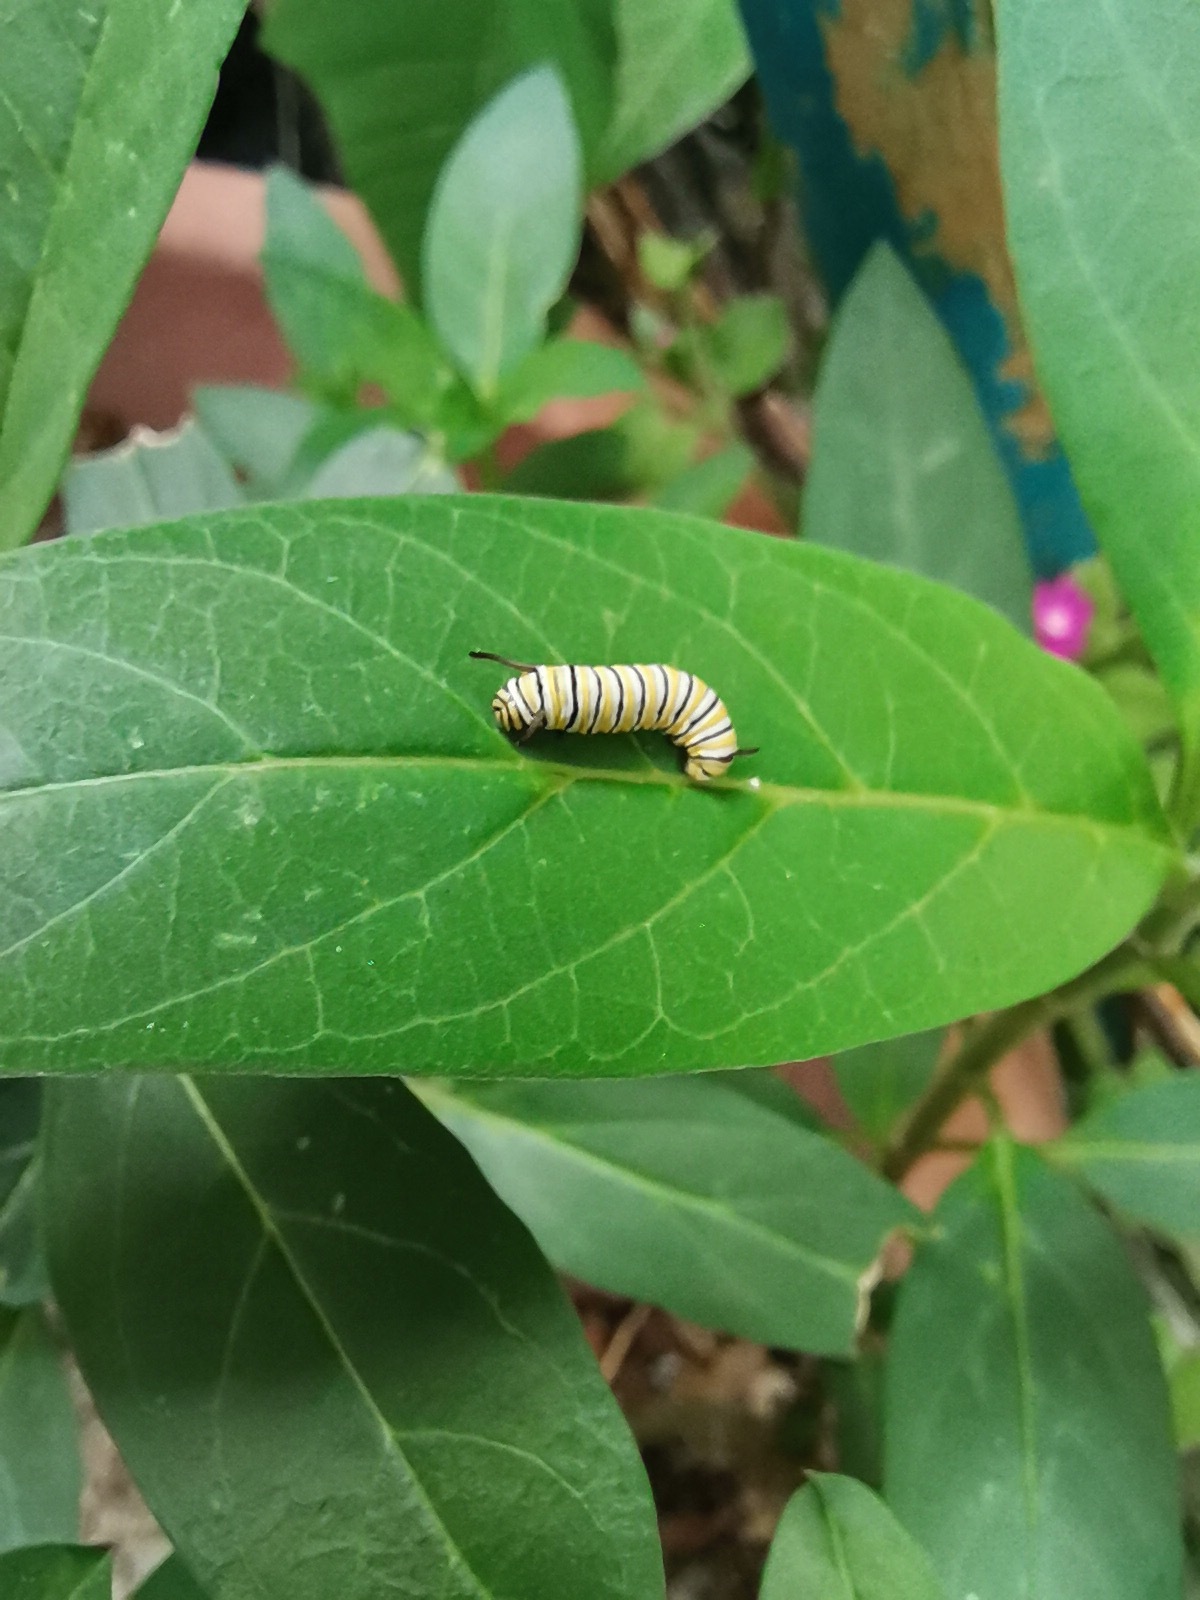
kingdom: Animalia
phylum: Arthropoda
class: Insecta
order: Lepidoptera
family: Nymphalidae
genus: Danaus
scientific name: Danaus plexippus
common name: Monarch
